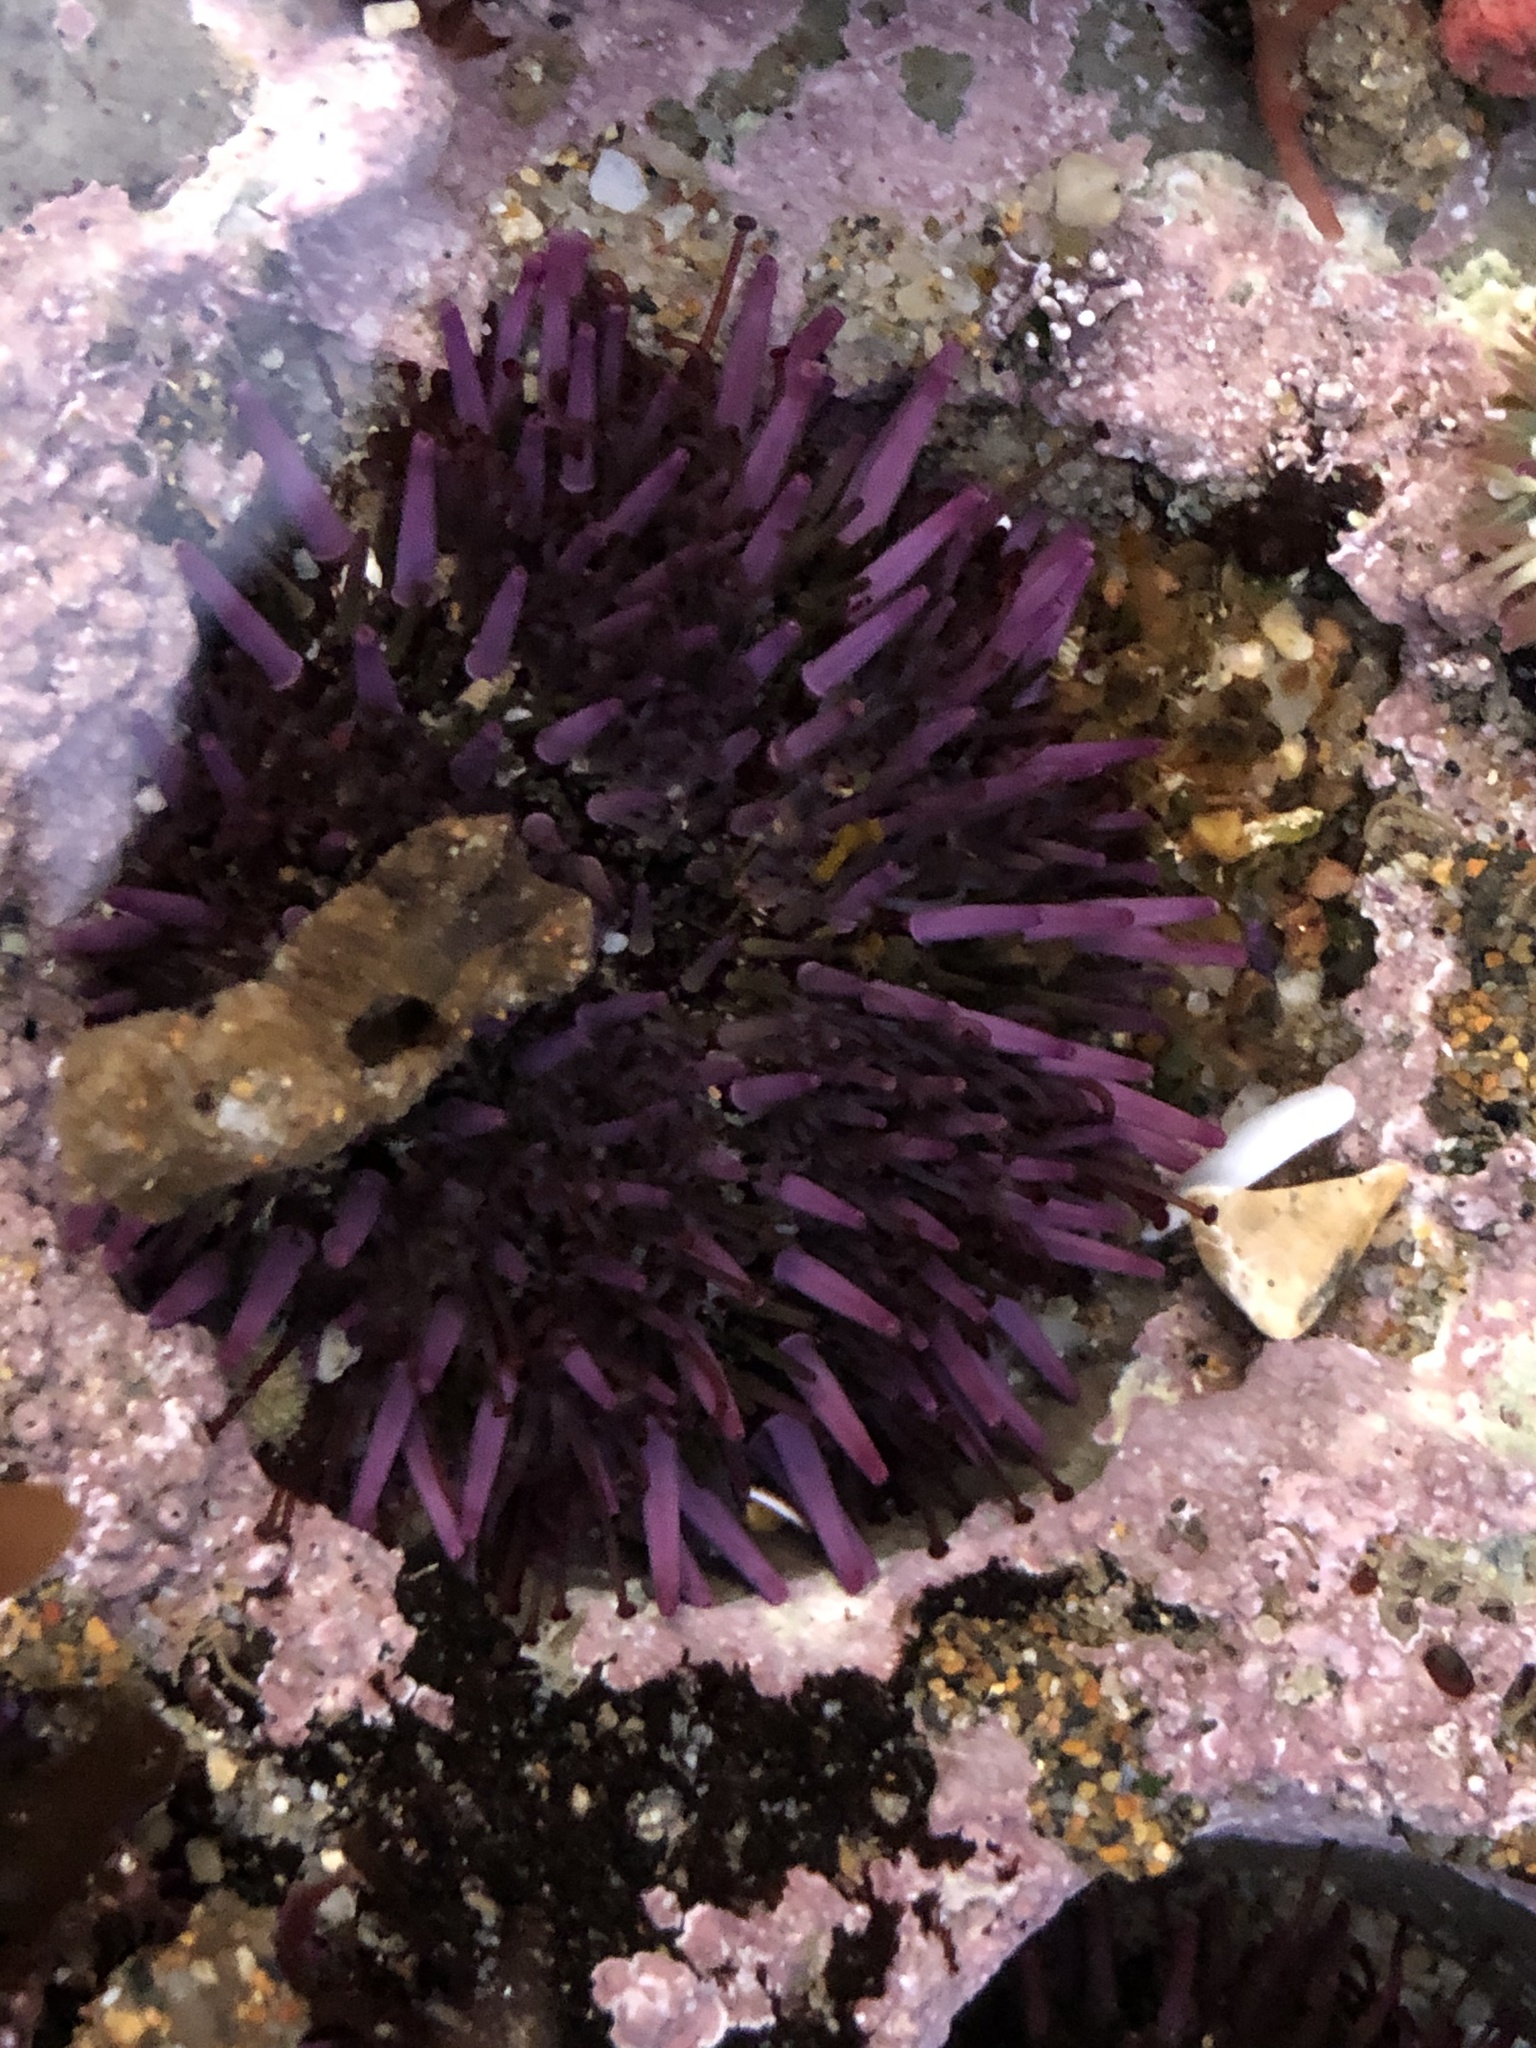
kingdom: Animalia
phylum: Echinodermata
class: Echinoidea
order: Camarodonta
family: Strongylocentrotidae
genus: Strongylocentrotus
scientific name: Strongylocentrotus purpuratus
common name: Purple sea urchin
